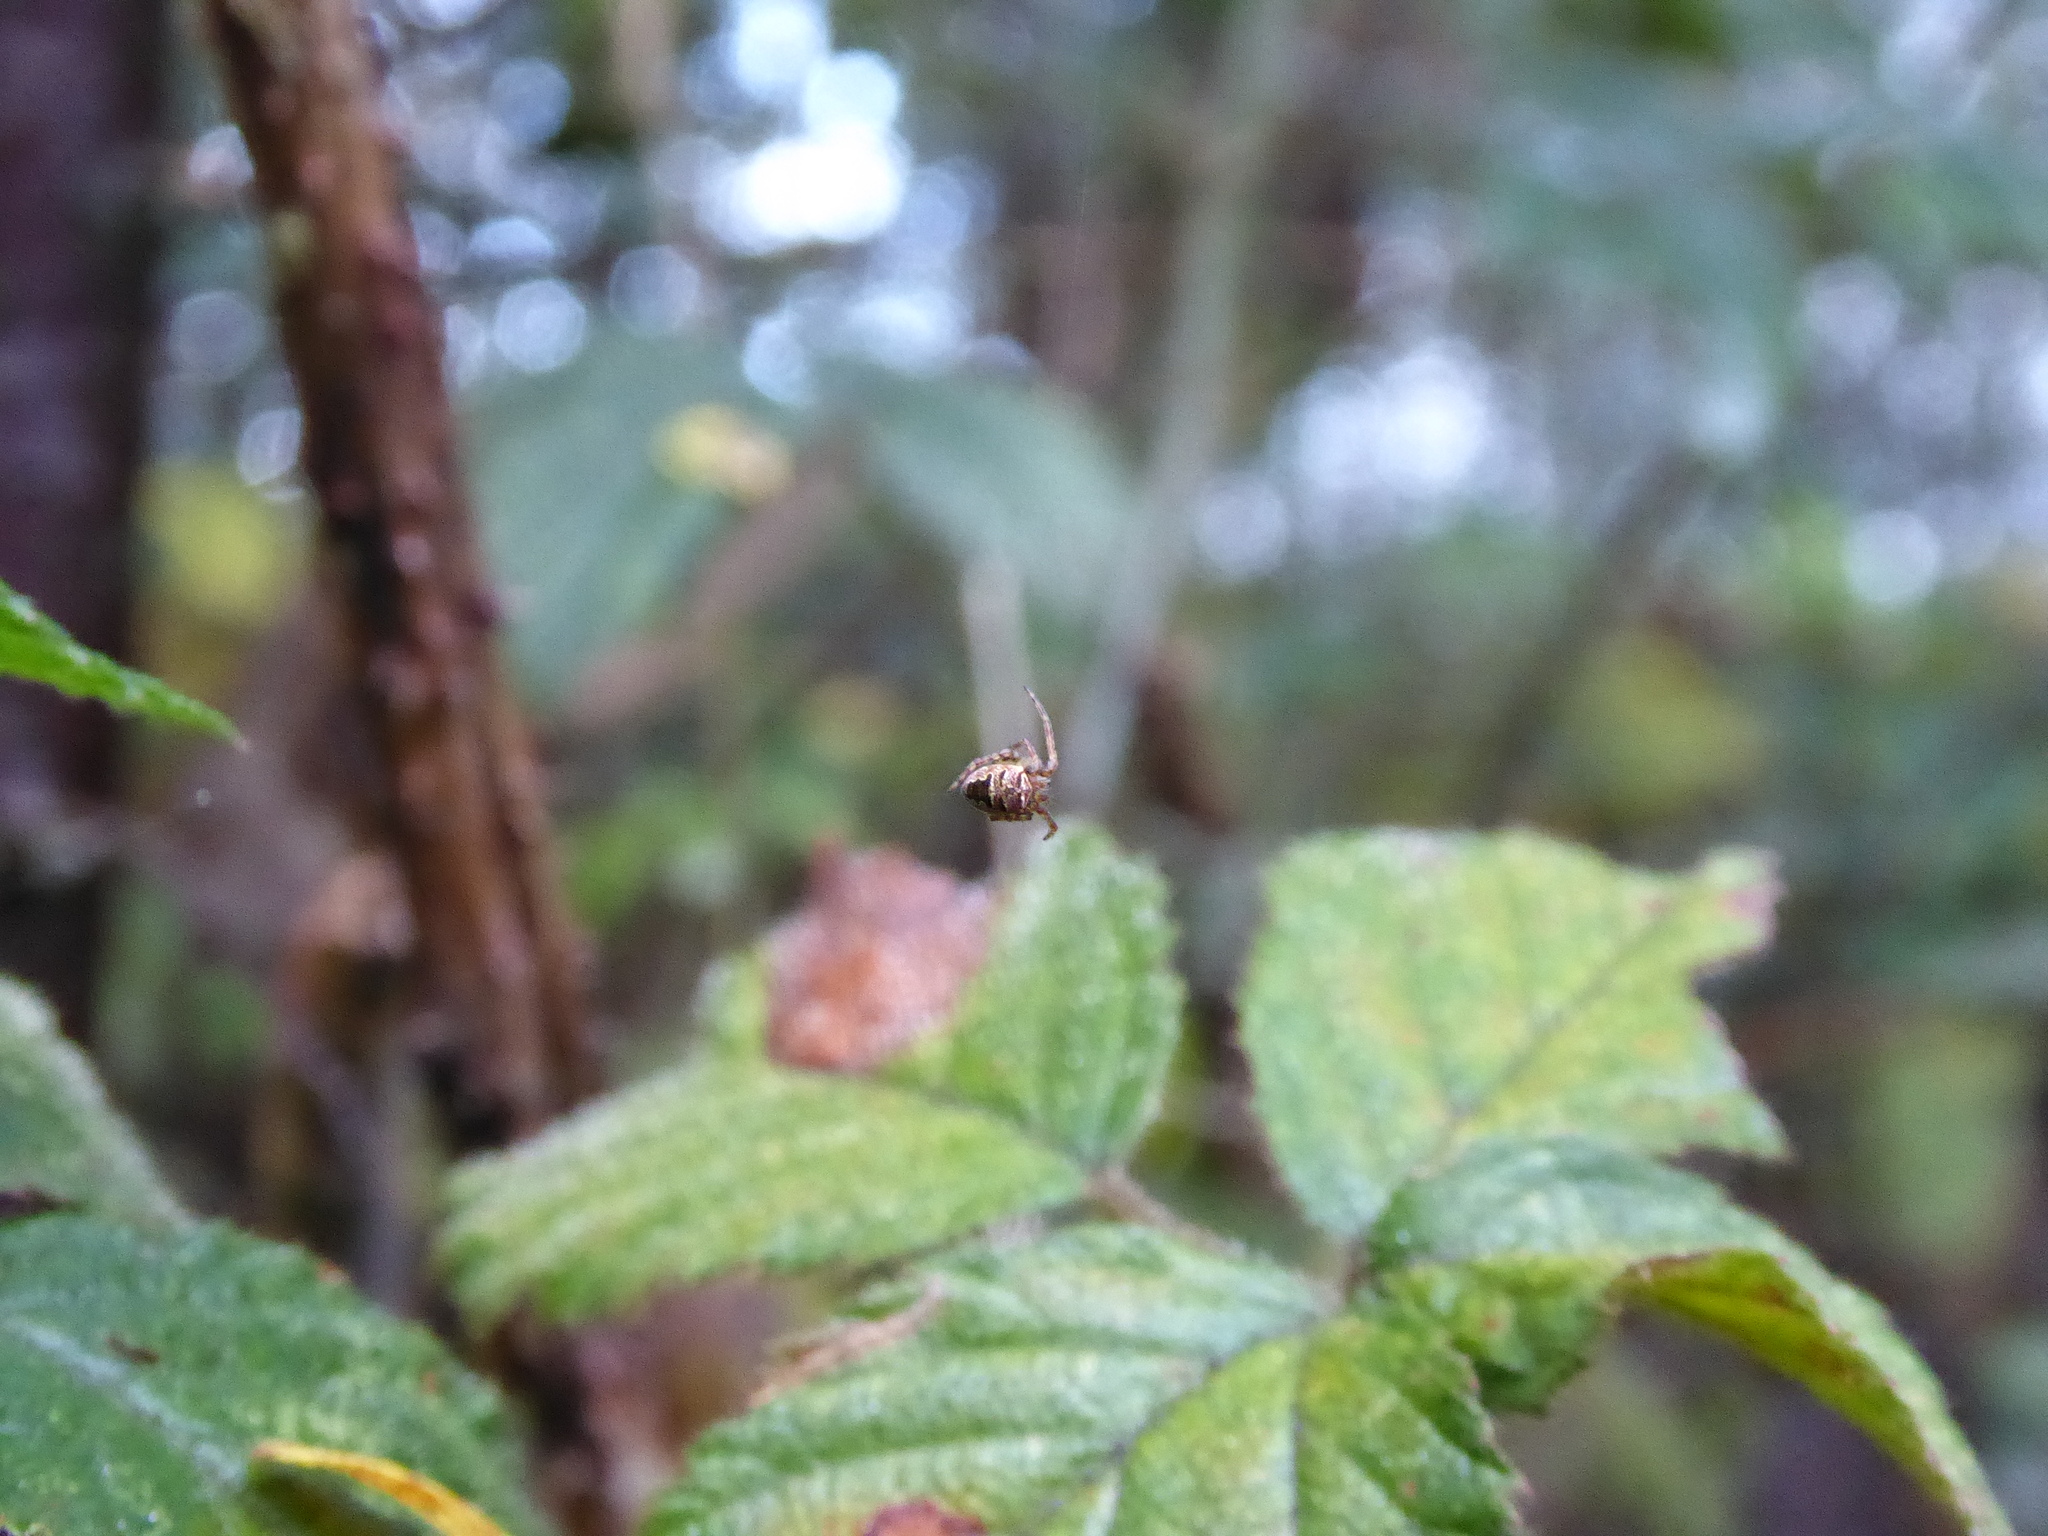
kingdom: Animalia
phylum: Arthropoda
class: Arachnida
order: Araneae
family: Araneidae
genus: Zilla
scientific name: Zilla diodia
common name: Zilla diodia
